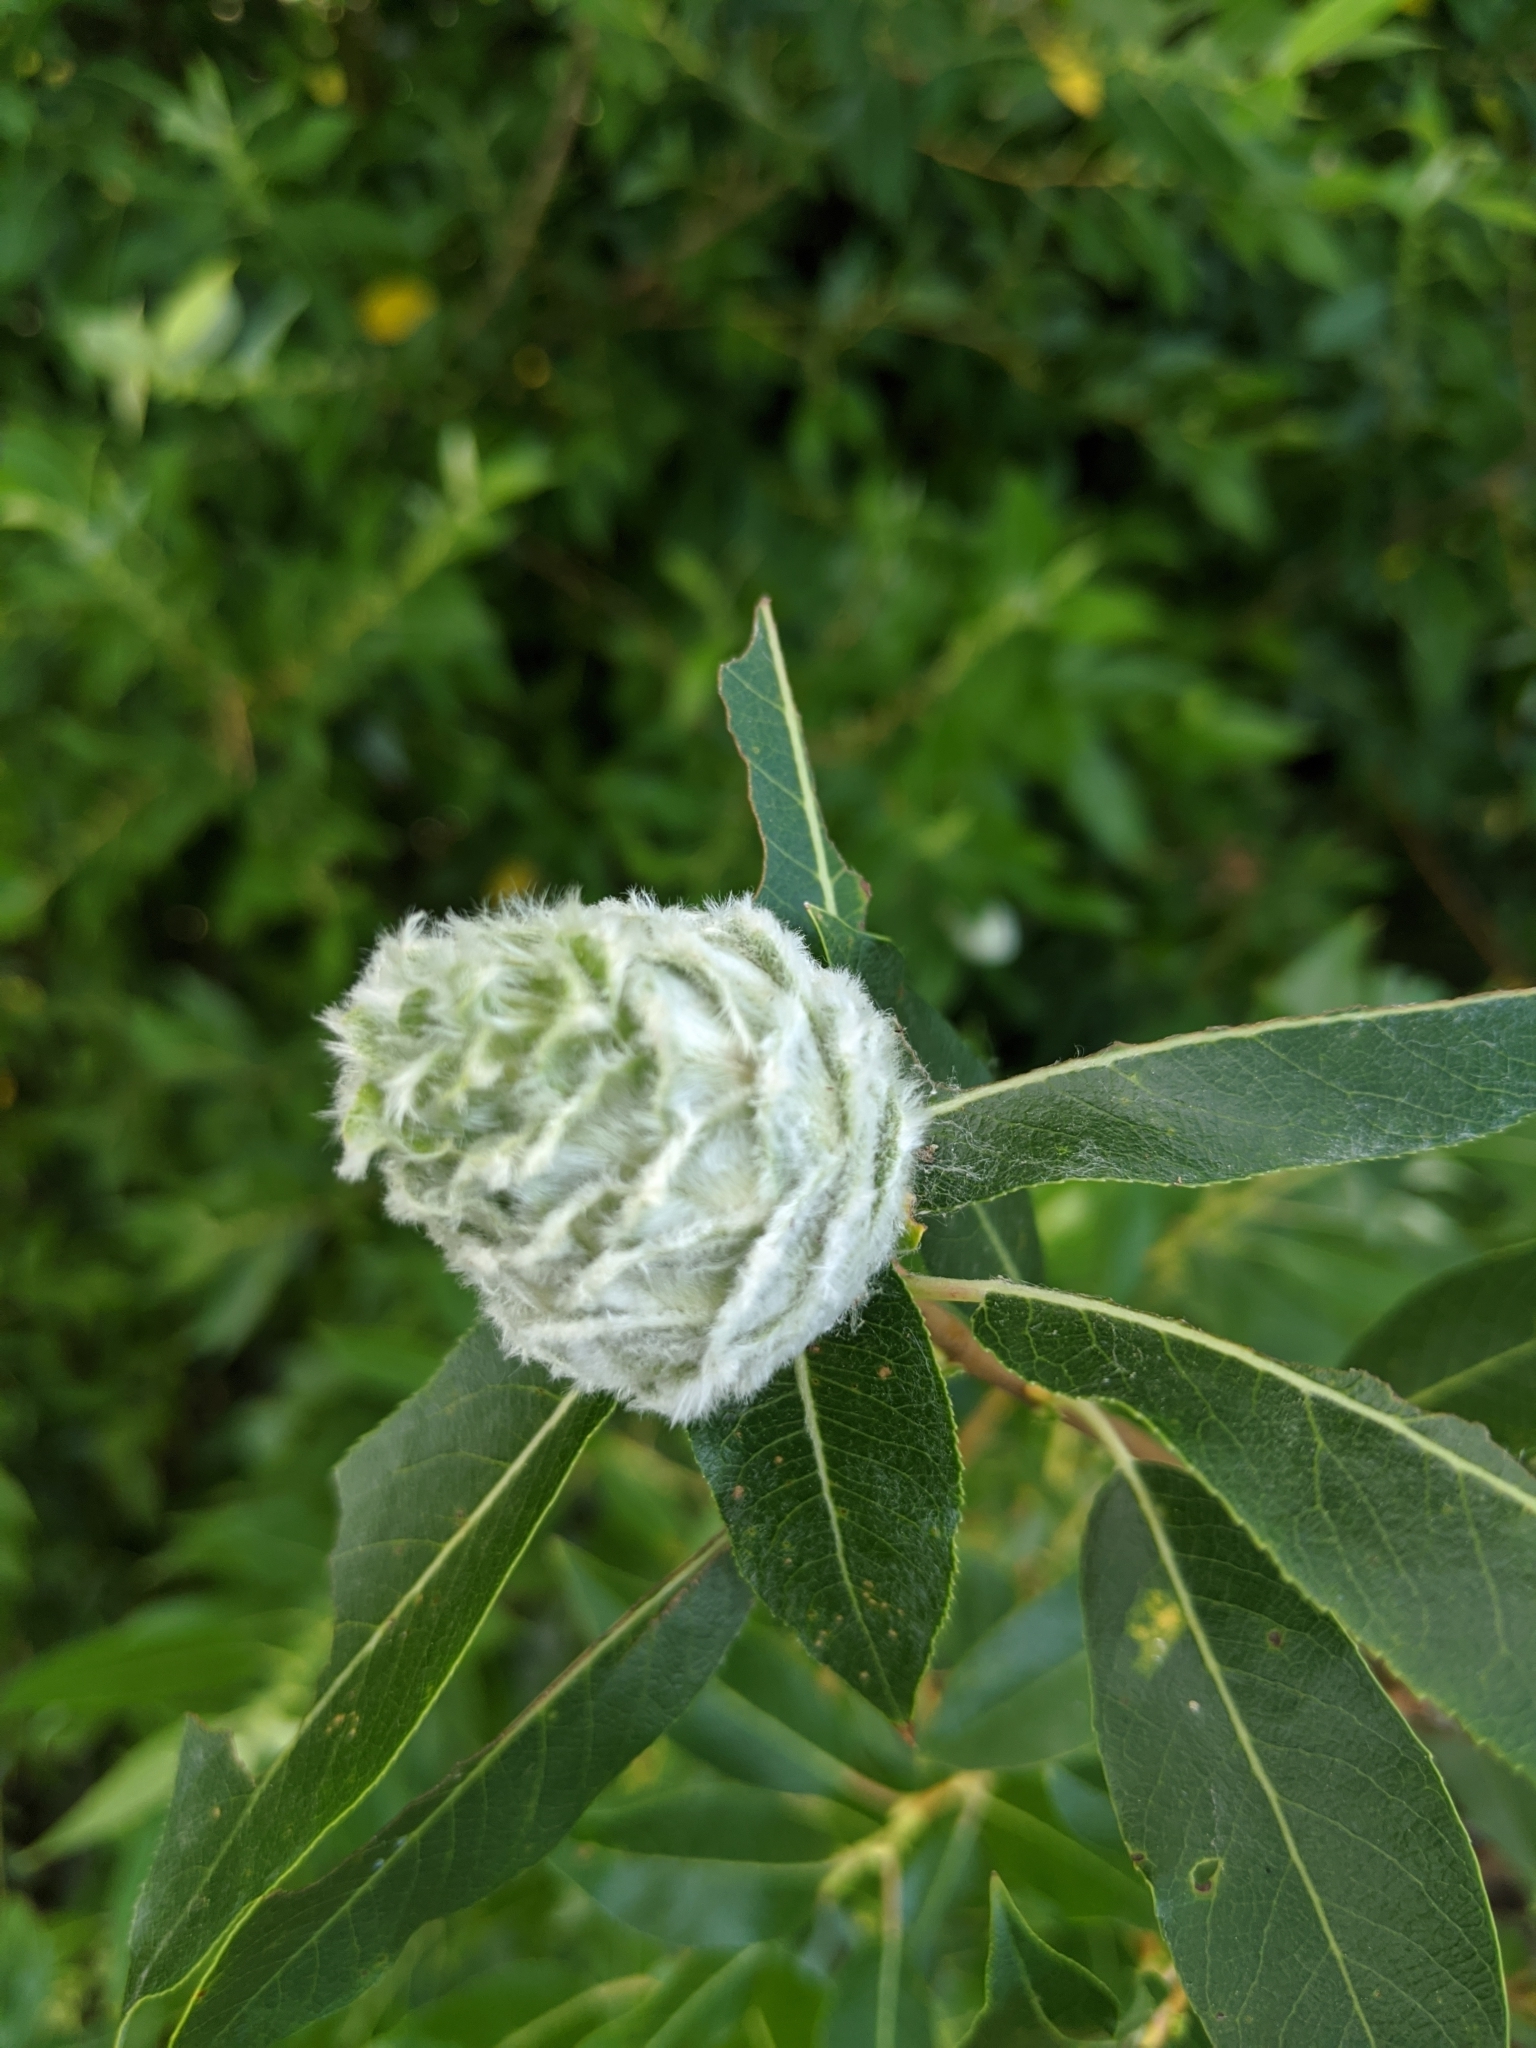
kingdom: Animalia
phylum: Arthropoda
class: Insecta
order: Diptera
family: Cecidomyiidae
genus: Rabdophaga
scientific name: Rabdophaga strobiloides
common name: Willow pinecone gall midge
